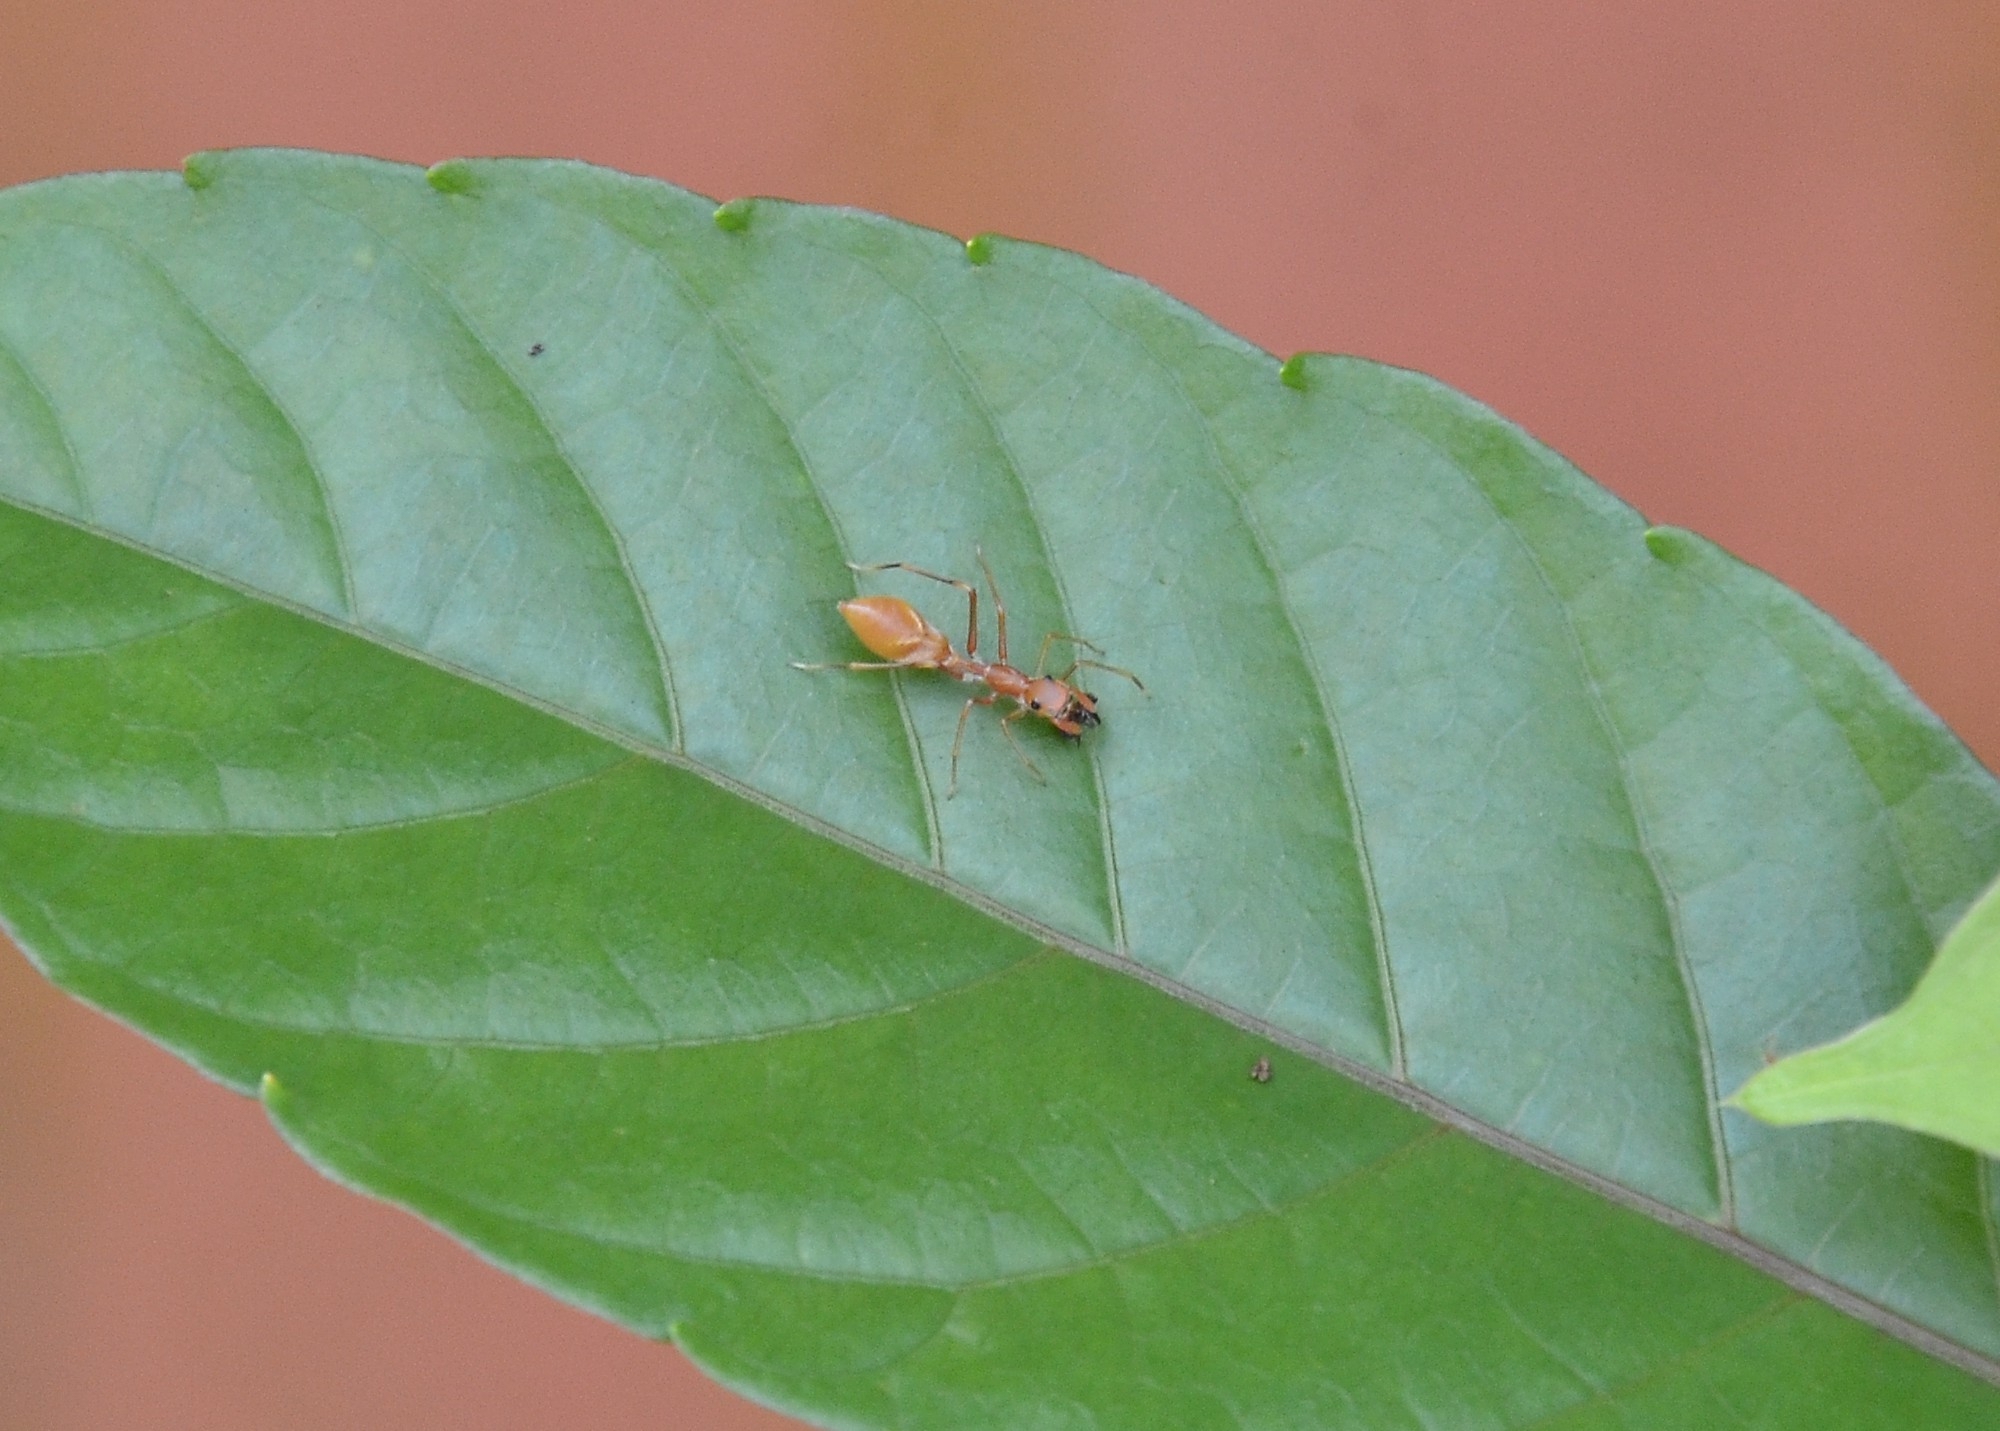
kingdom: Animalia
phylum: Arthropoda
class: Arachnida
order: Araneae
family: Salticidae
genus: Myrmaplata
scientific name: Myrmaplata plataleoides
